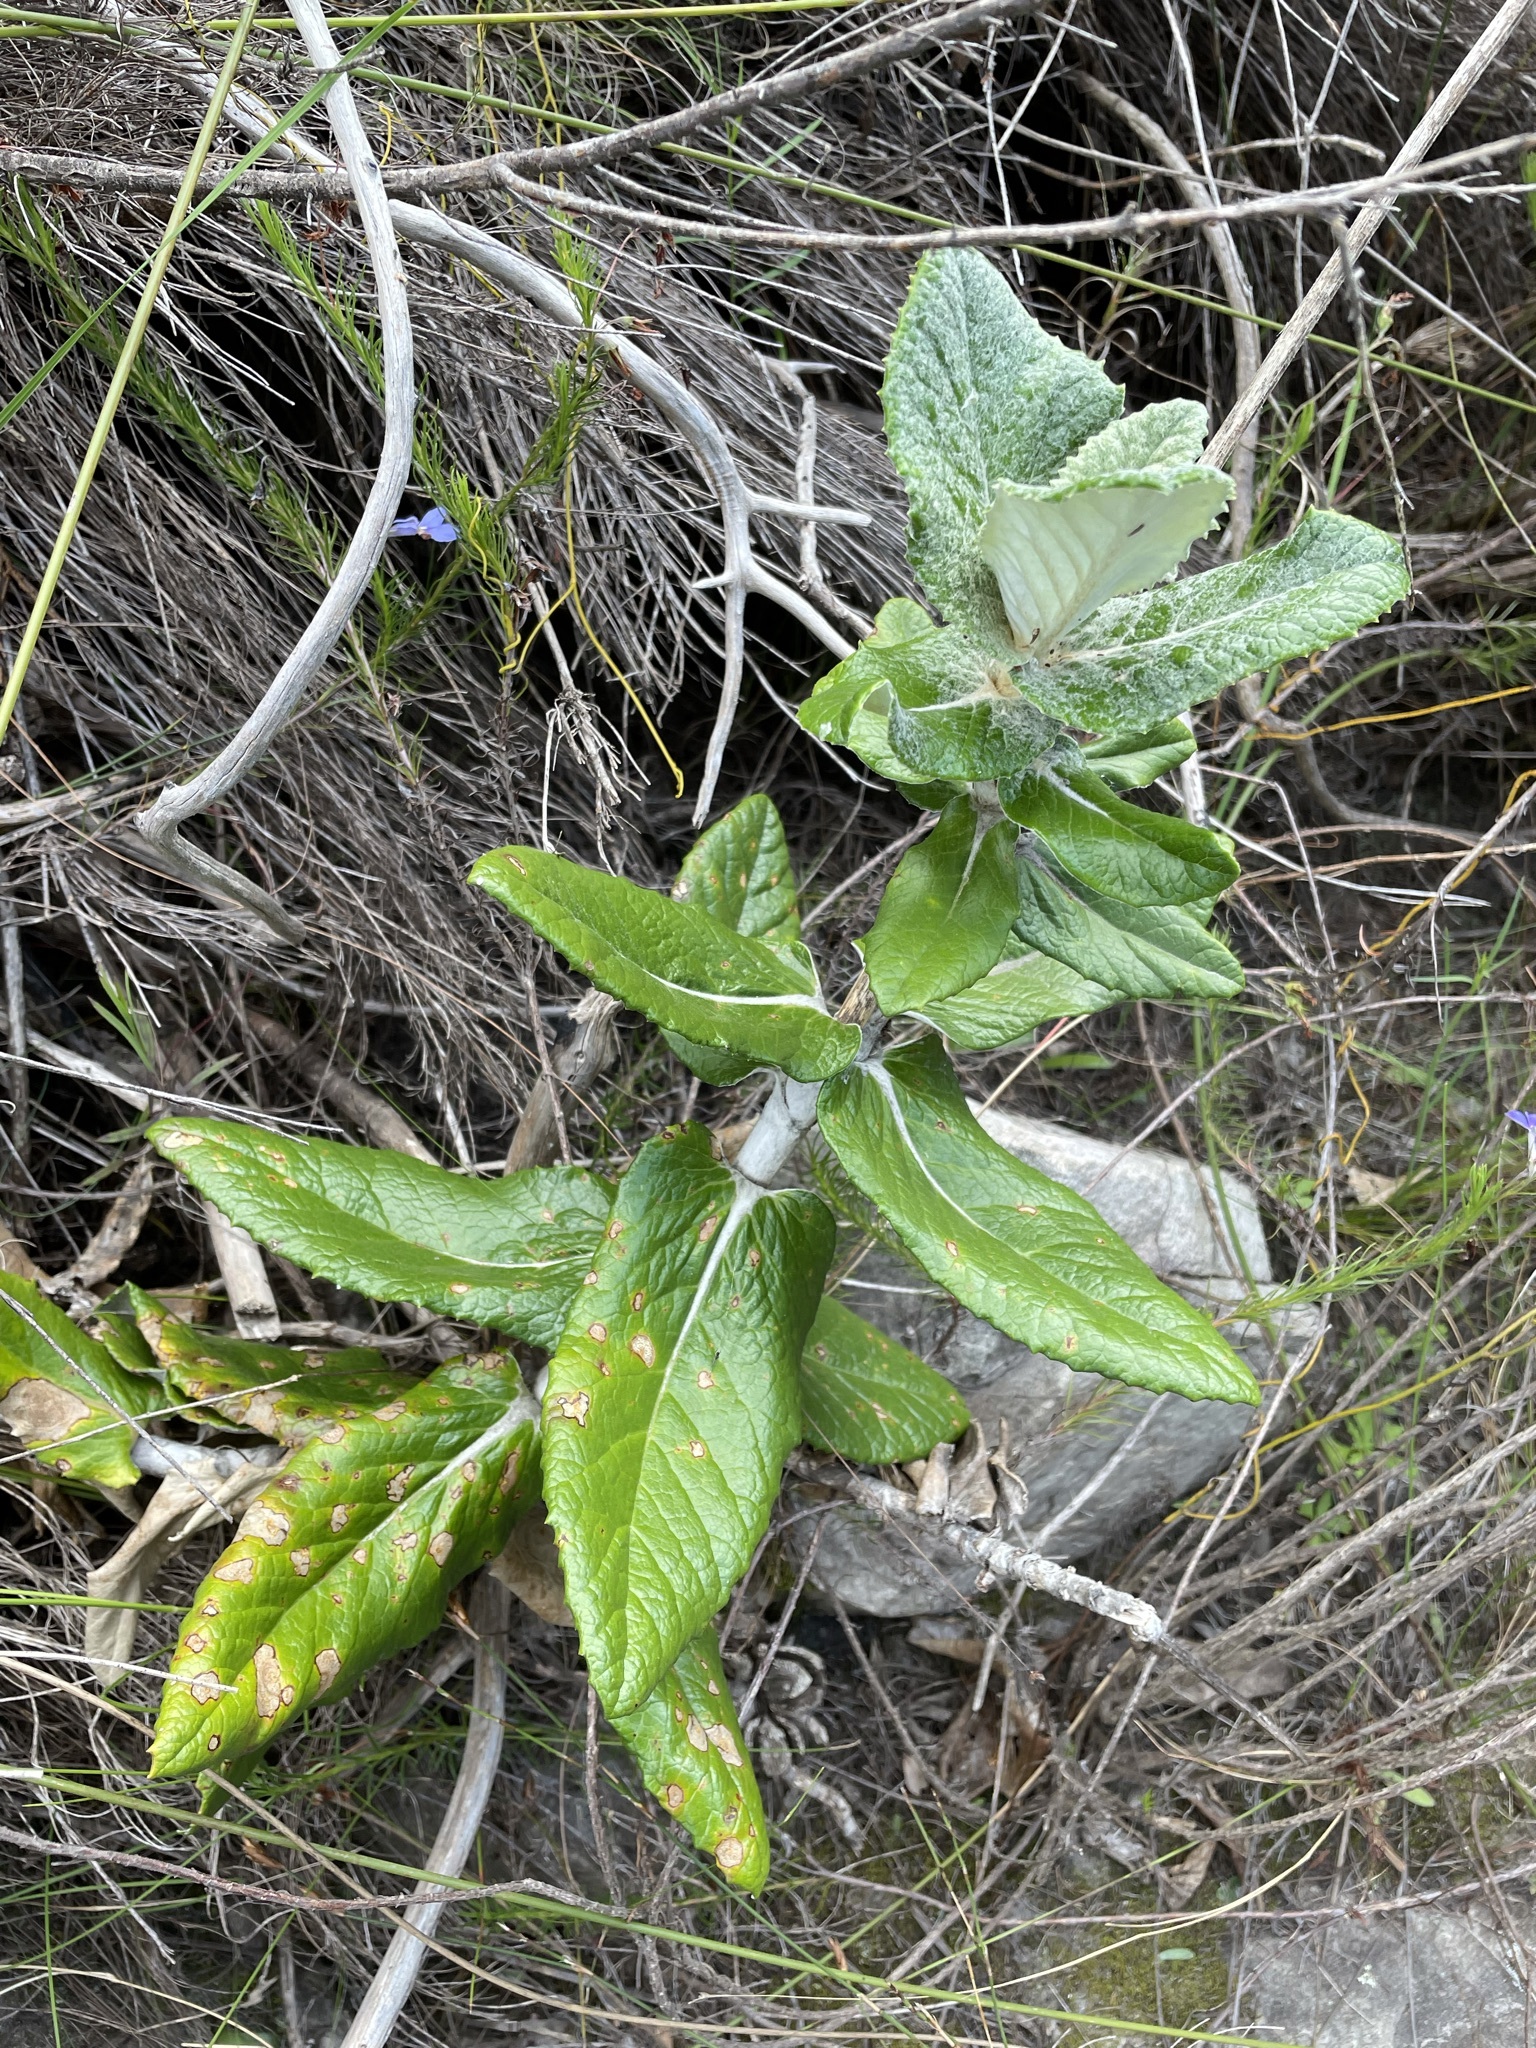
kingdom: Plantae
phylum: Tracheophyta
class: Magnoliopsida
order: Apiales
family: Apiaceae
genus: Hermas
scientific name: Hermas villosa
